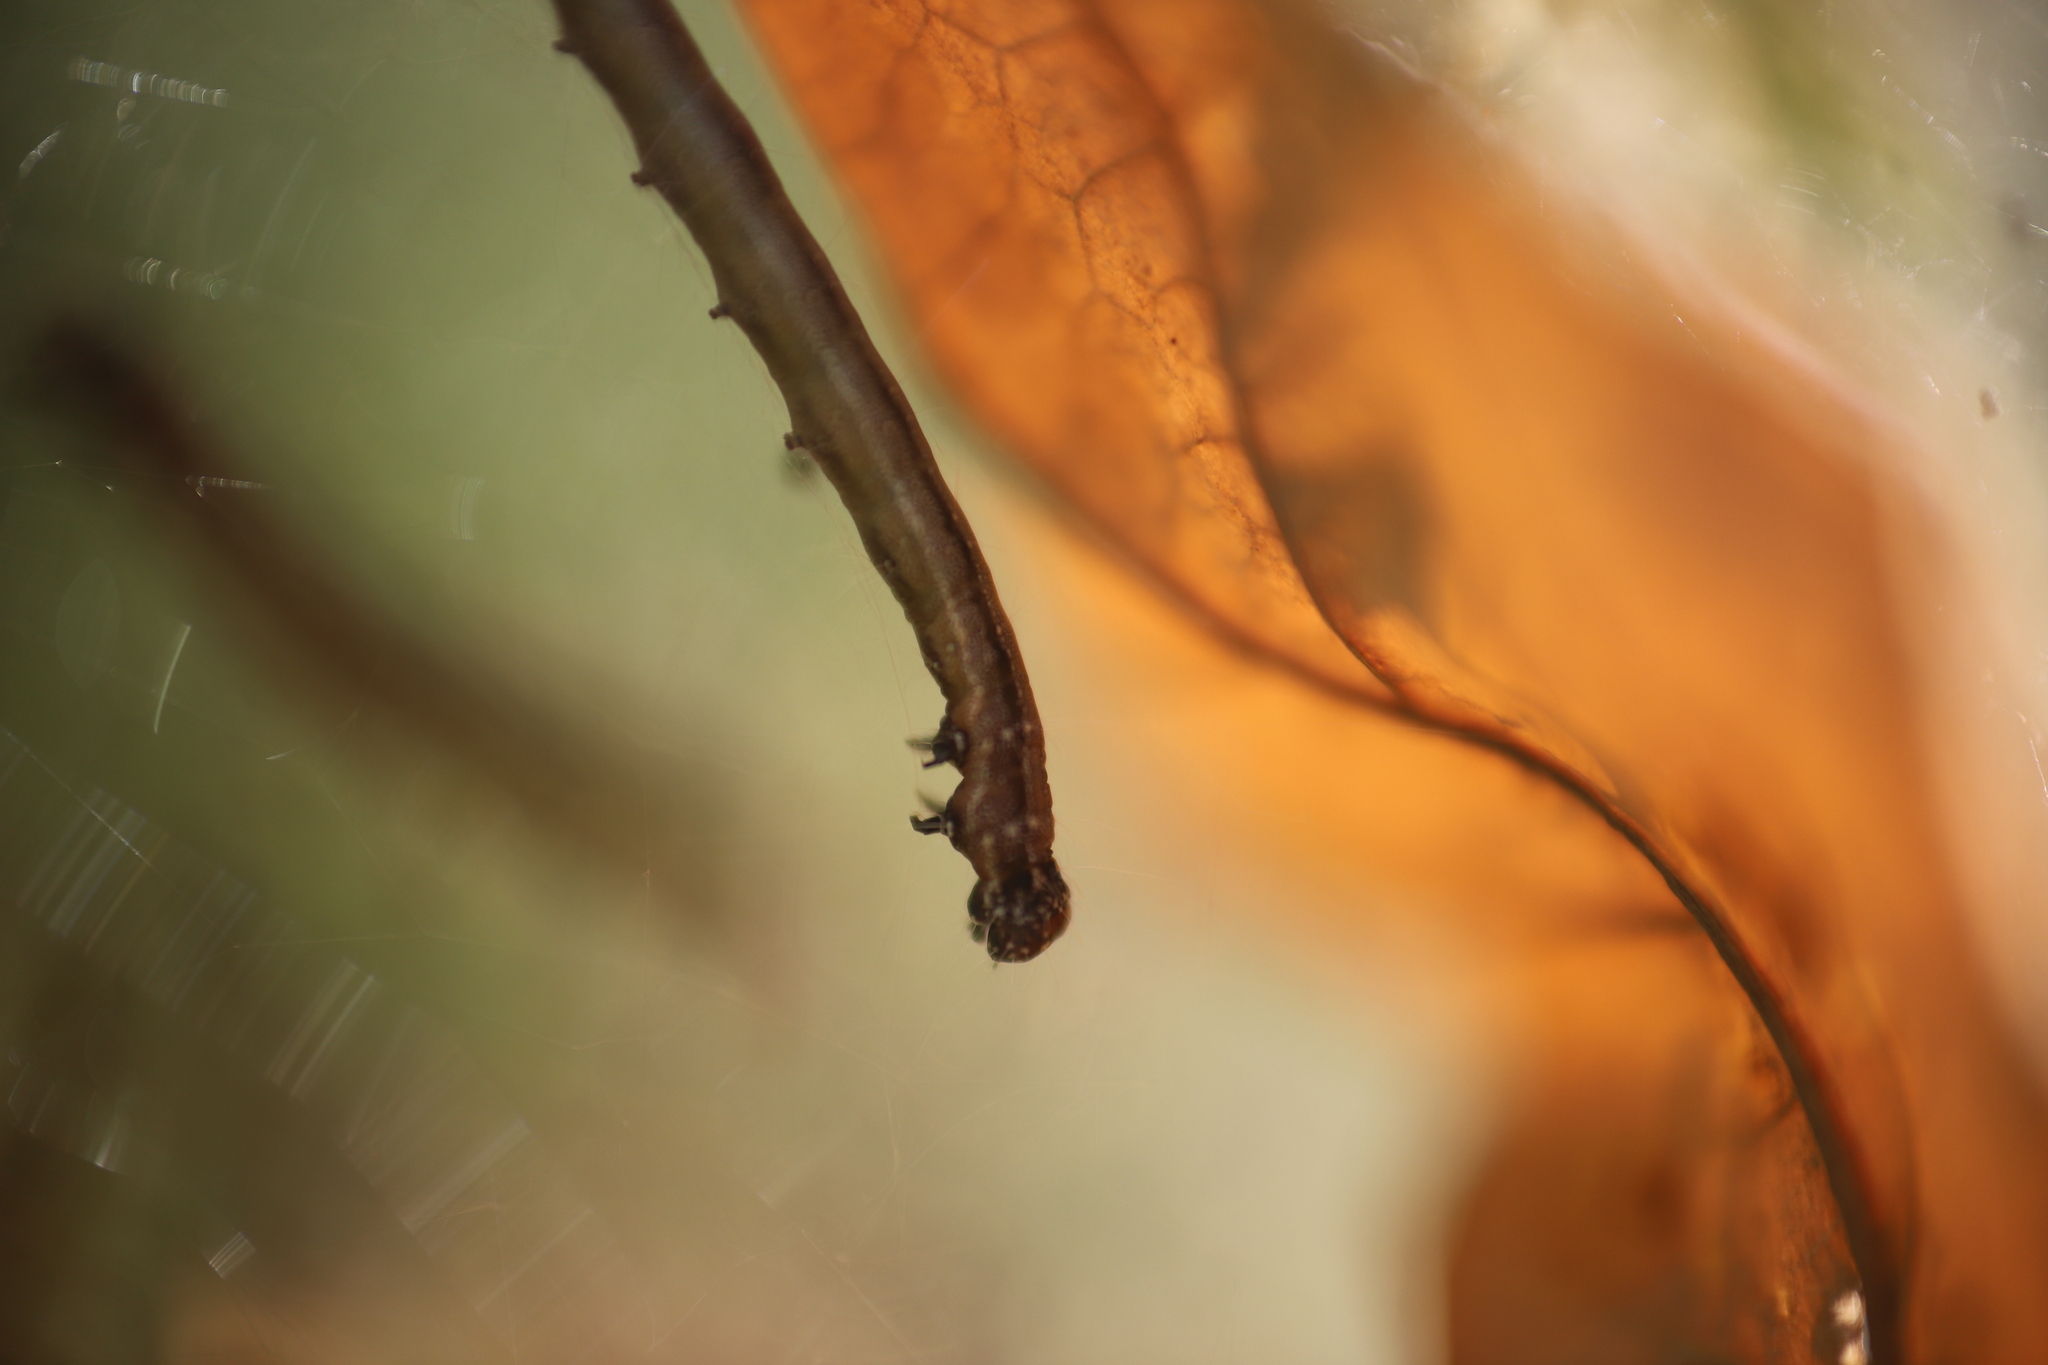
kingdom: Animalia
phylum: Arthropoda
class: Insecta
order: Lepidoptera
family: Attevidae
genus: Atteva
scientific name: Atteva punctella
